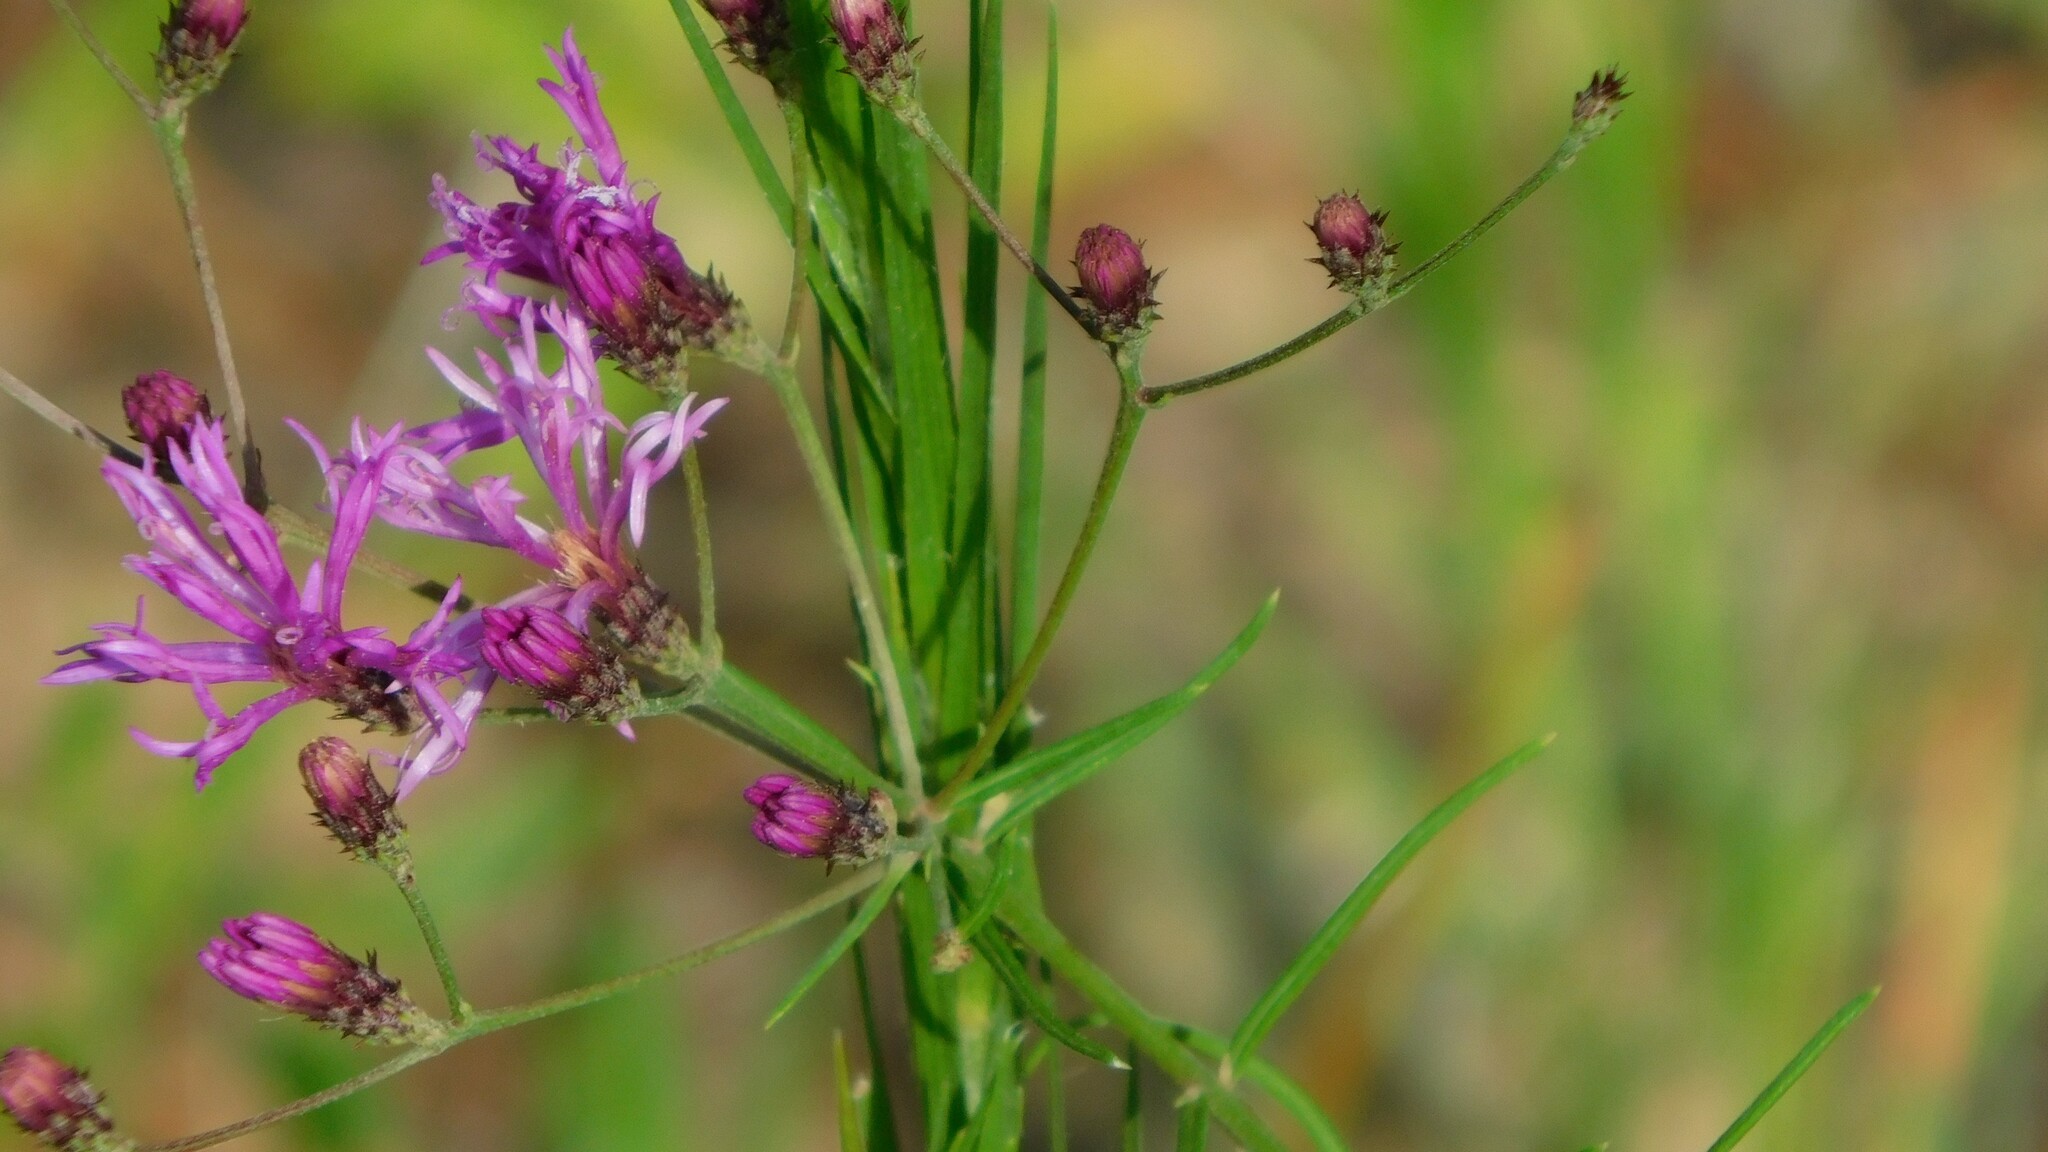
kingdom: Plantae
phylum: Tracheophyta
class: Magnoliopsida
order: Asterales
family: Asteraceae
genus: Vernonia
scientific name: Vernonia angustifolia
